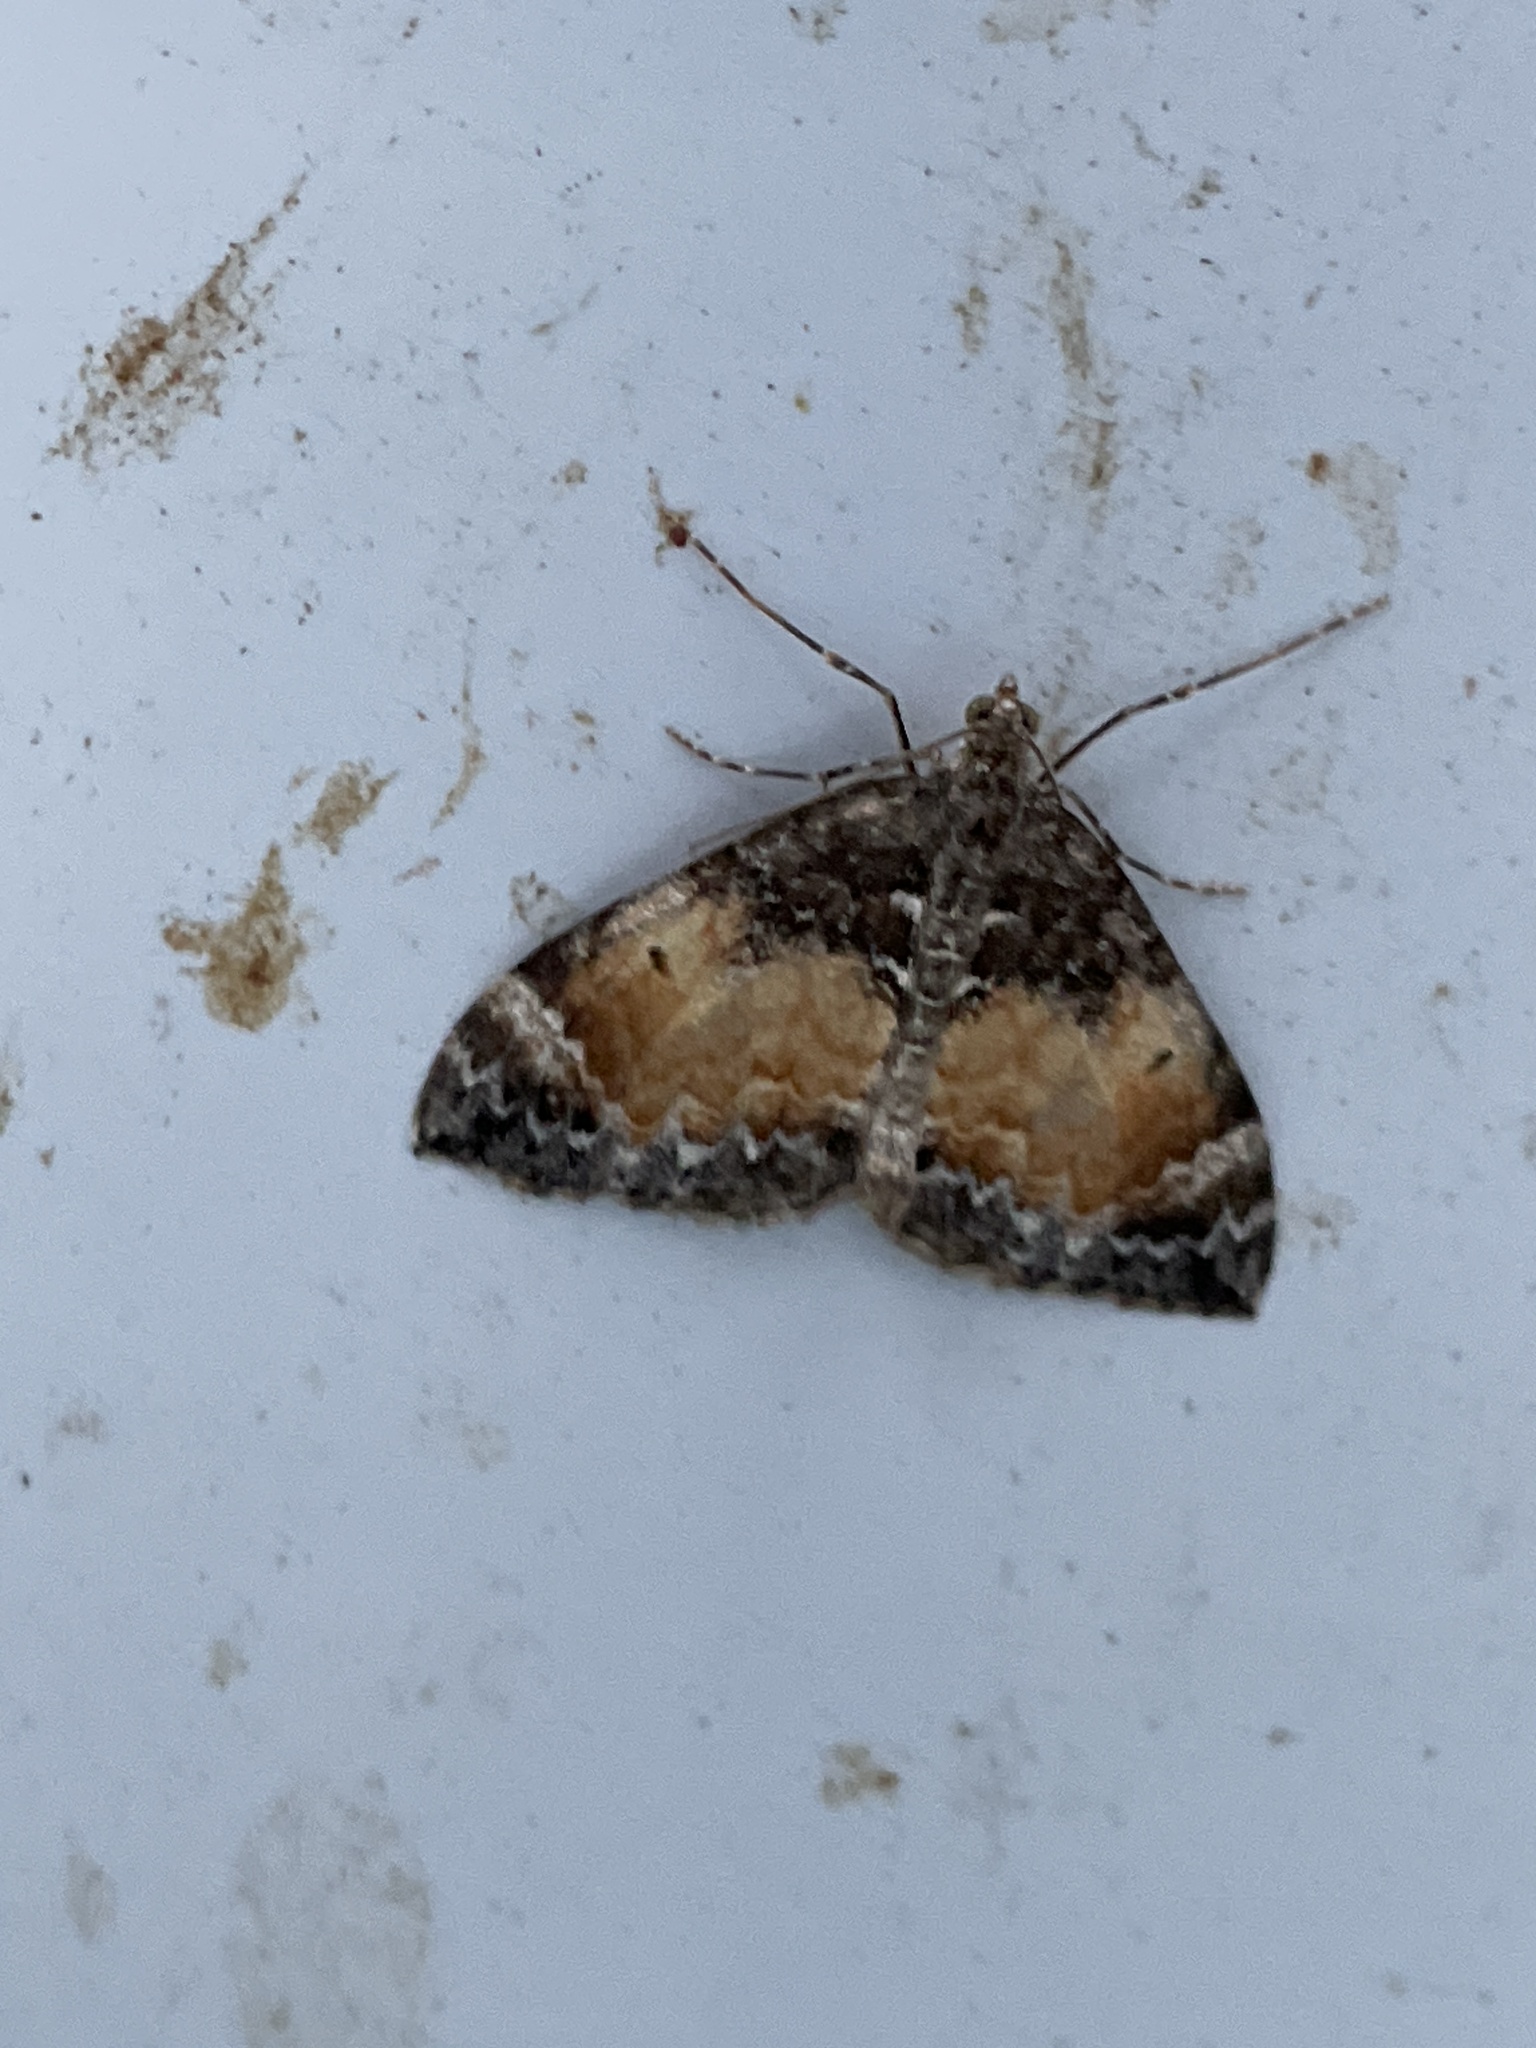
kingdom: Animalia
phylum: Arthropoda
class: Insecta
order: Lepidoptera
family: Geometridae
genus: Dysstroma
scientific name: Dysstroma truncata
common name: Common marbled carpet
